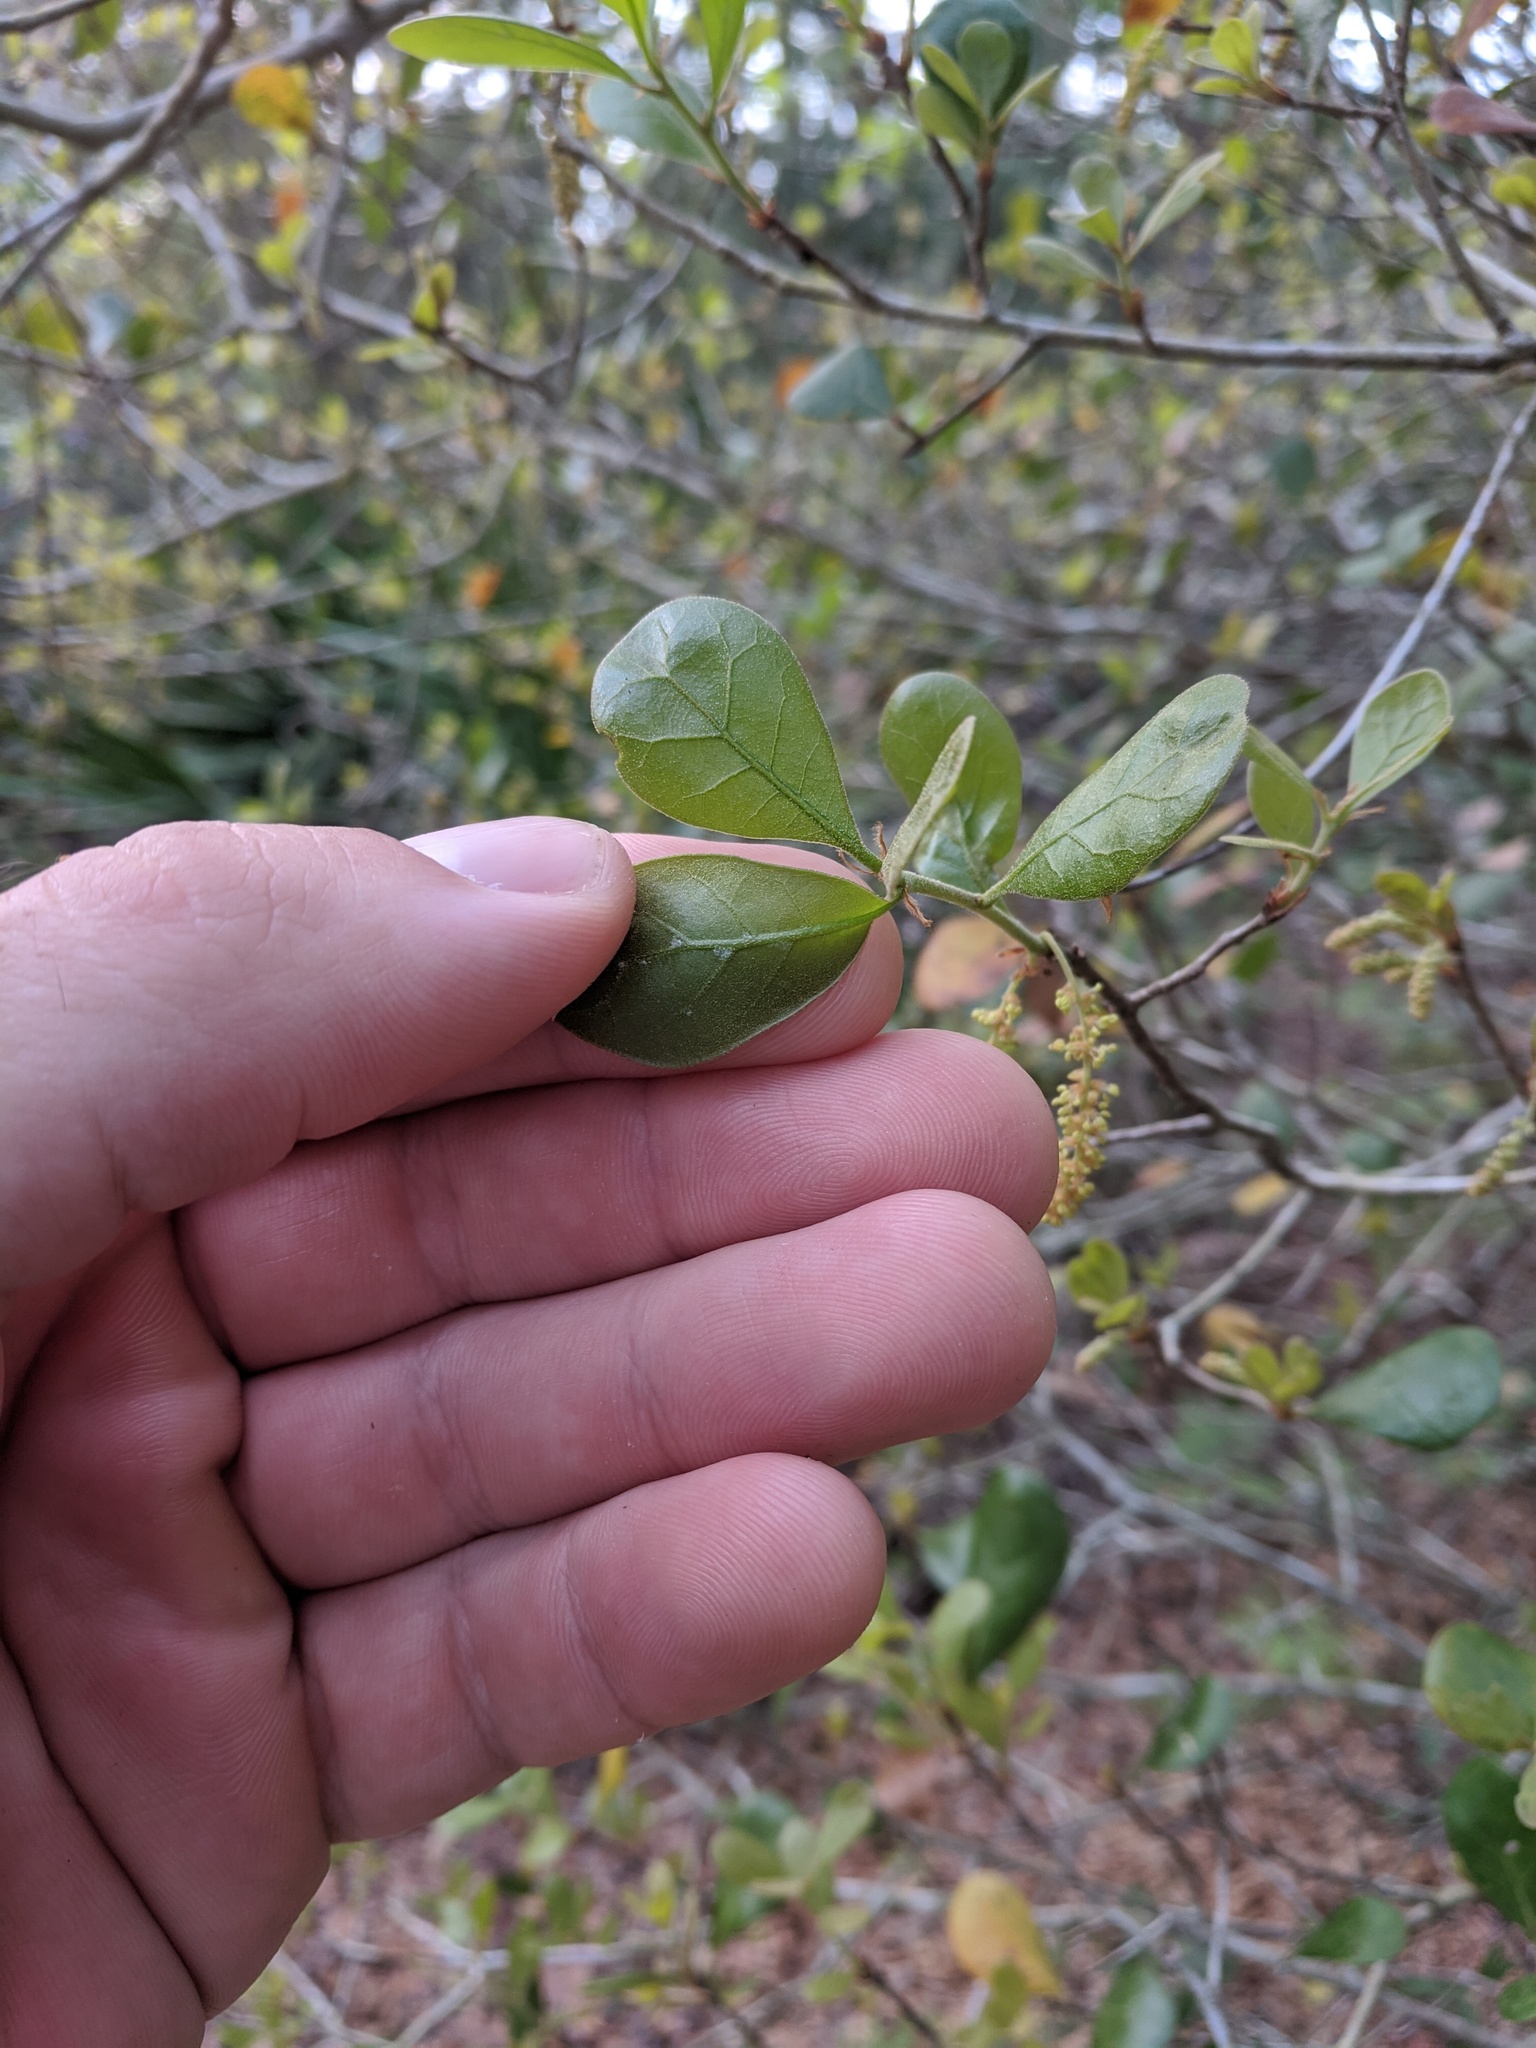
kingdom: Plantae
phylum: Tracheophyta
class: Magnoliopsida
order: Fagales
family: Fagaceae
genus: Quercus
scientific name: Quercus myrtifolia
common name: Myrtle oak
